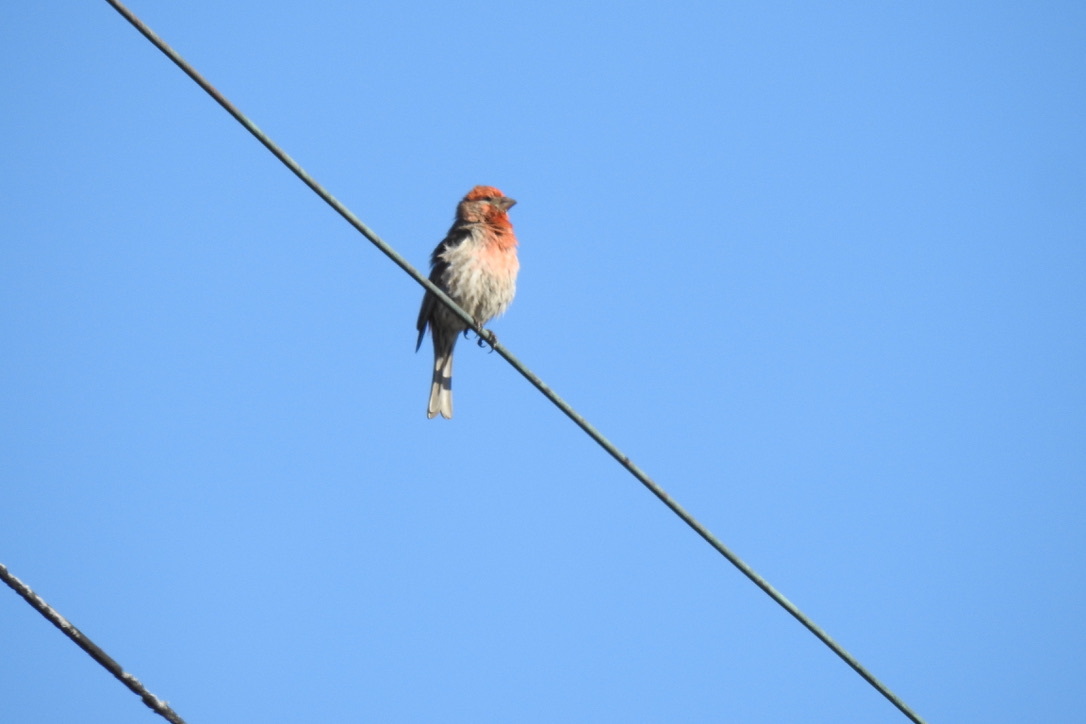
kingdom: Animalia
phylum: Chordata
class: Aves
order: Passeriformes
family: Fringillidae
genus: Haemorhous
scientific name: Haemorhous mexicanus
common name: House finch
